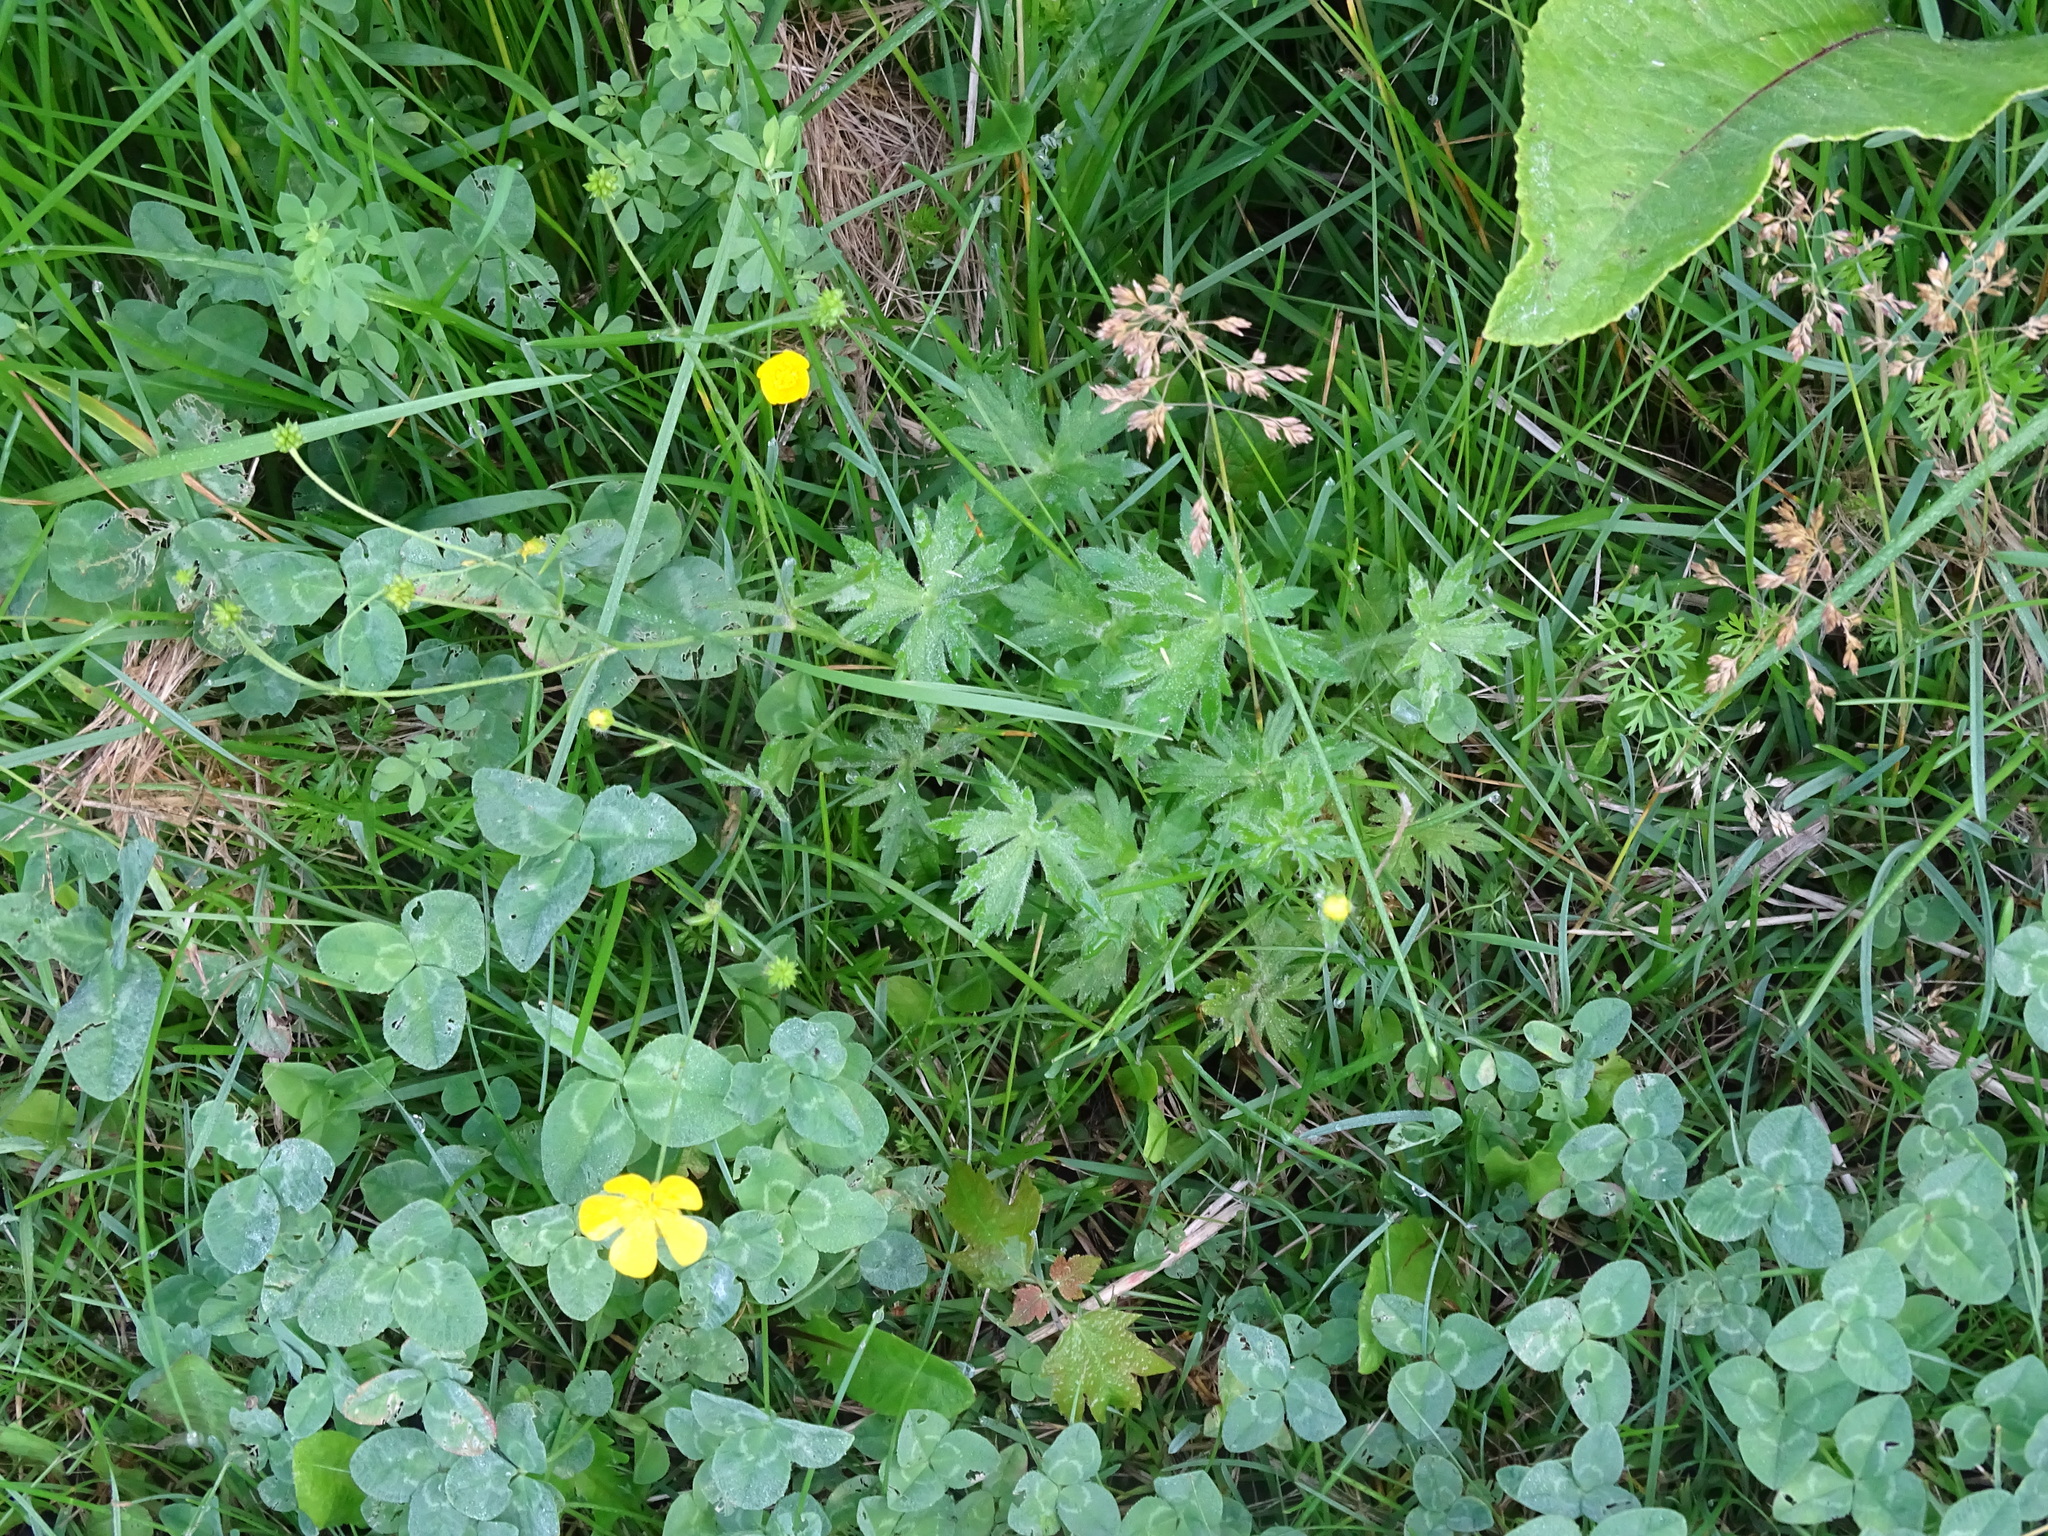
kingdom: Plantae
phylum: Tracheophyta
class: Magnoliopsida
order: Ranunculales
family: Ranunculaceae
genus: Ranunculus
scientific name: Ranunculus acris
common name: Meadow buttercup
